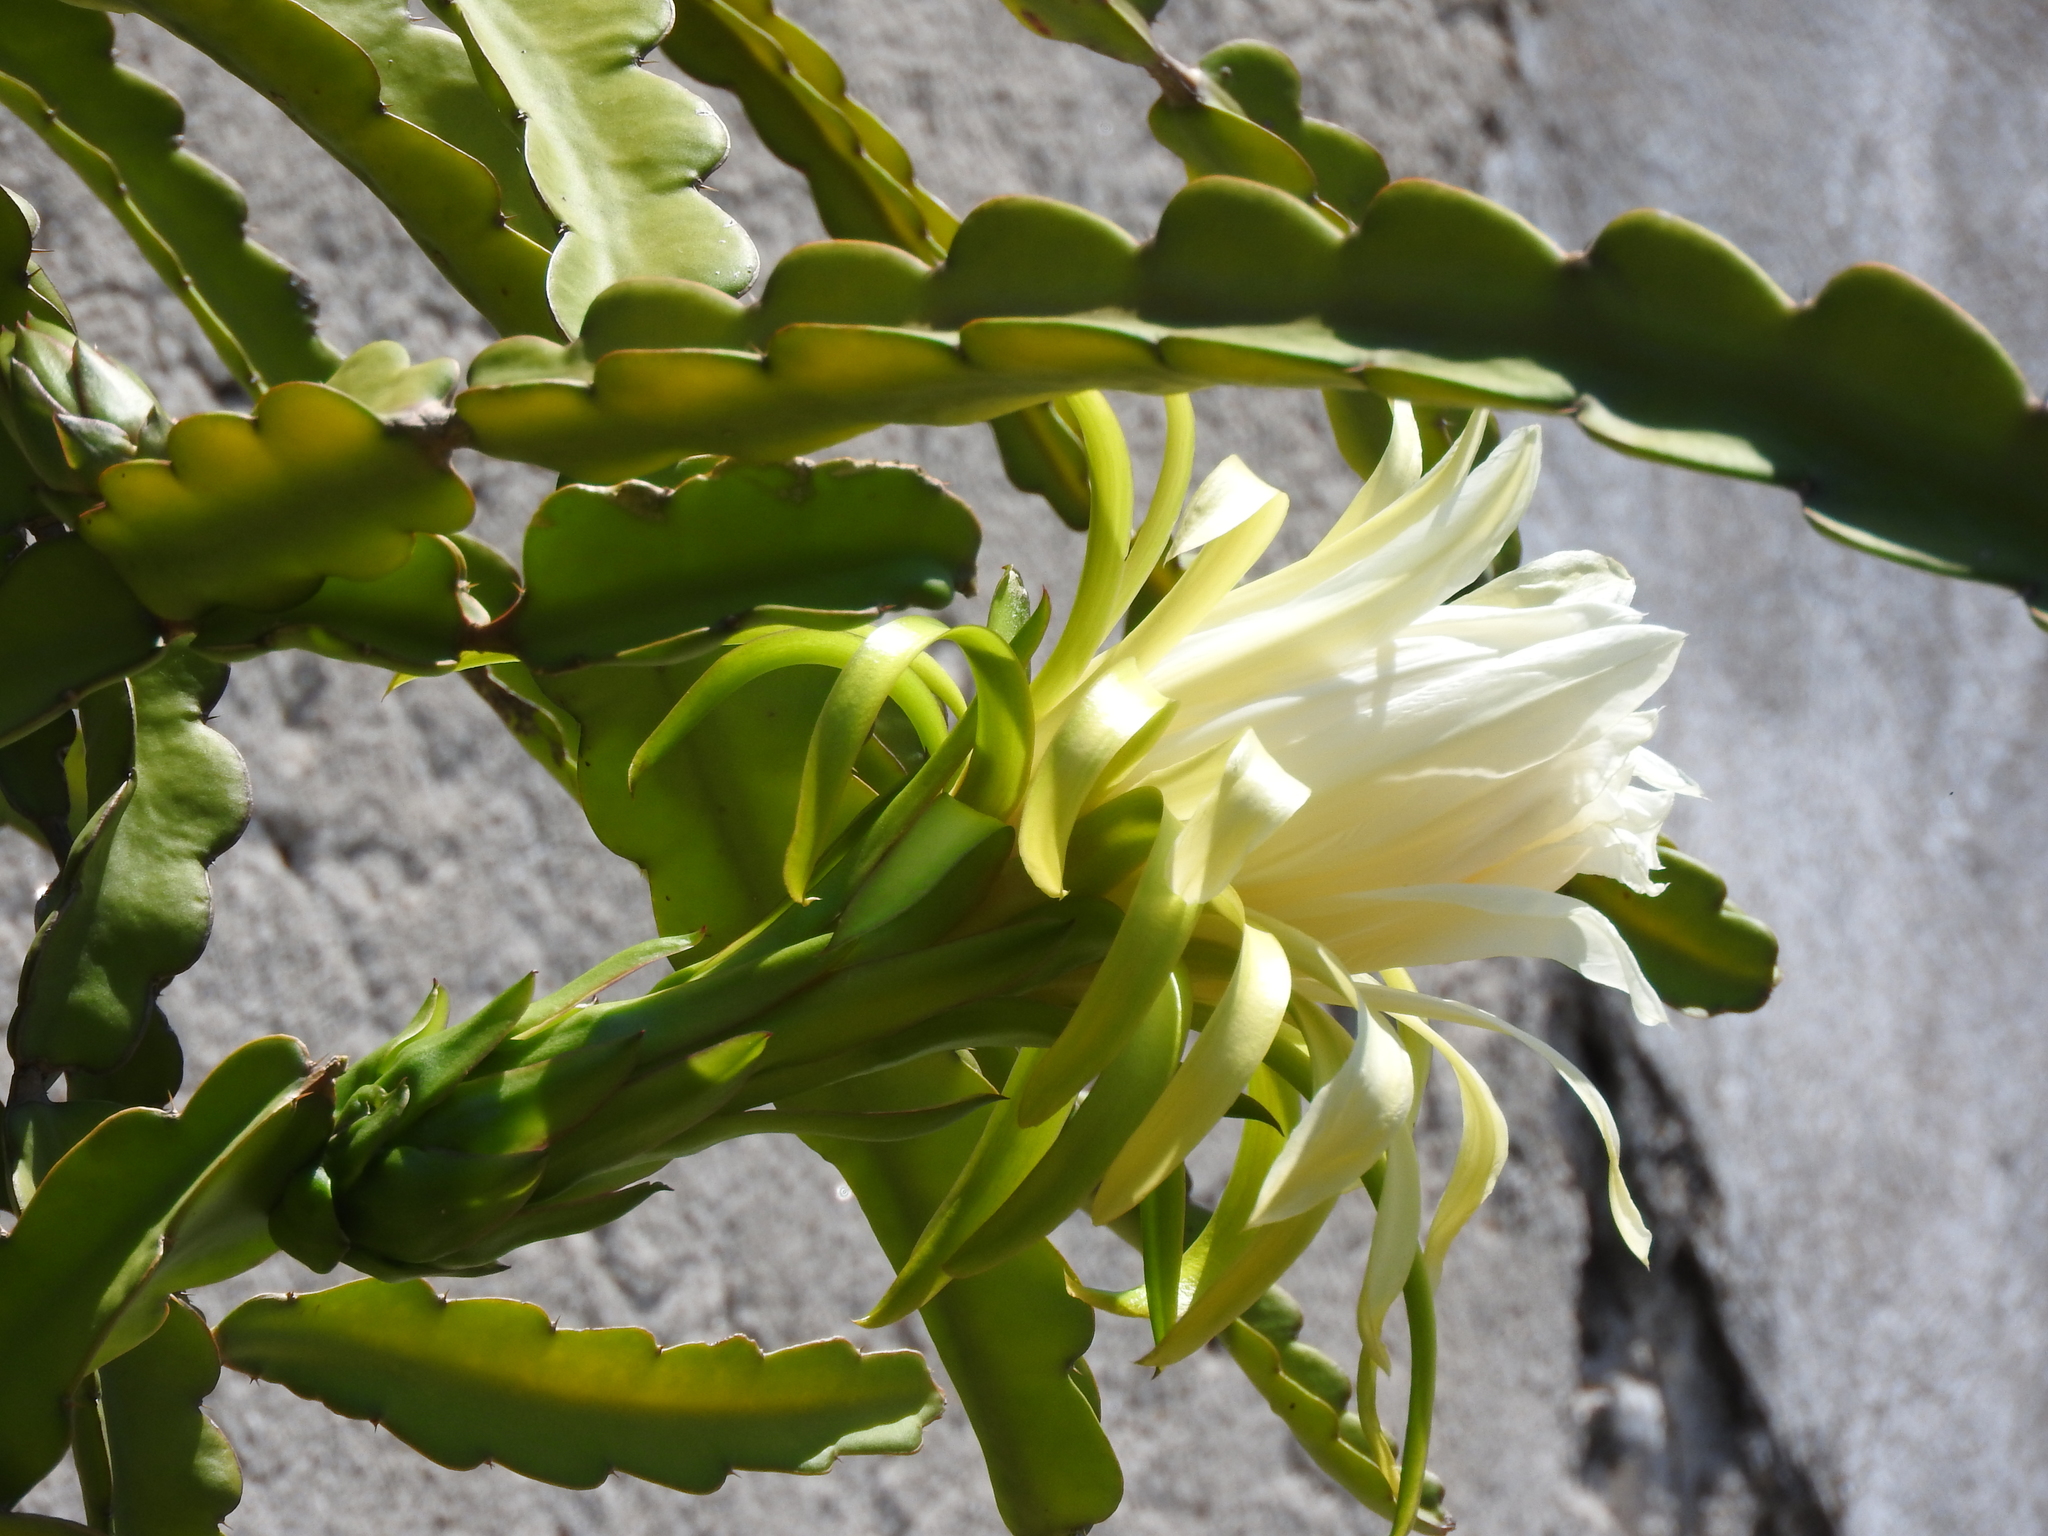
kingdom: Plantae
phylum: Tracheophyta
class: Magnoliopsida
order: Caryophyllales
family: Cactaceae
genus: Selenicereus
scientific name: Selenicereus undatus
